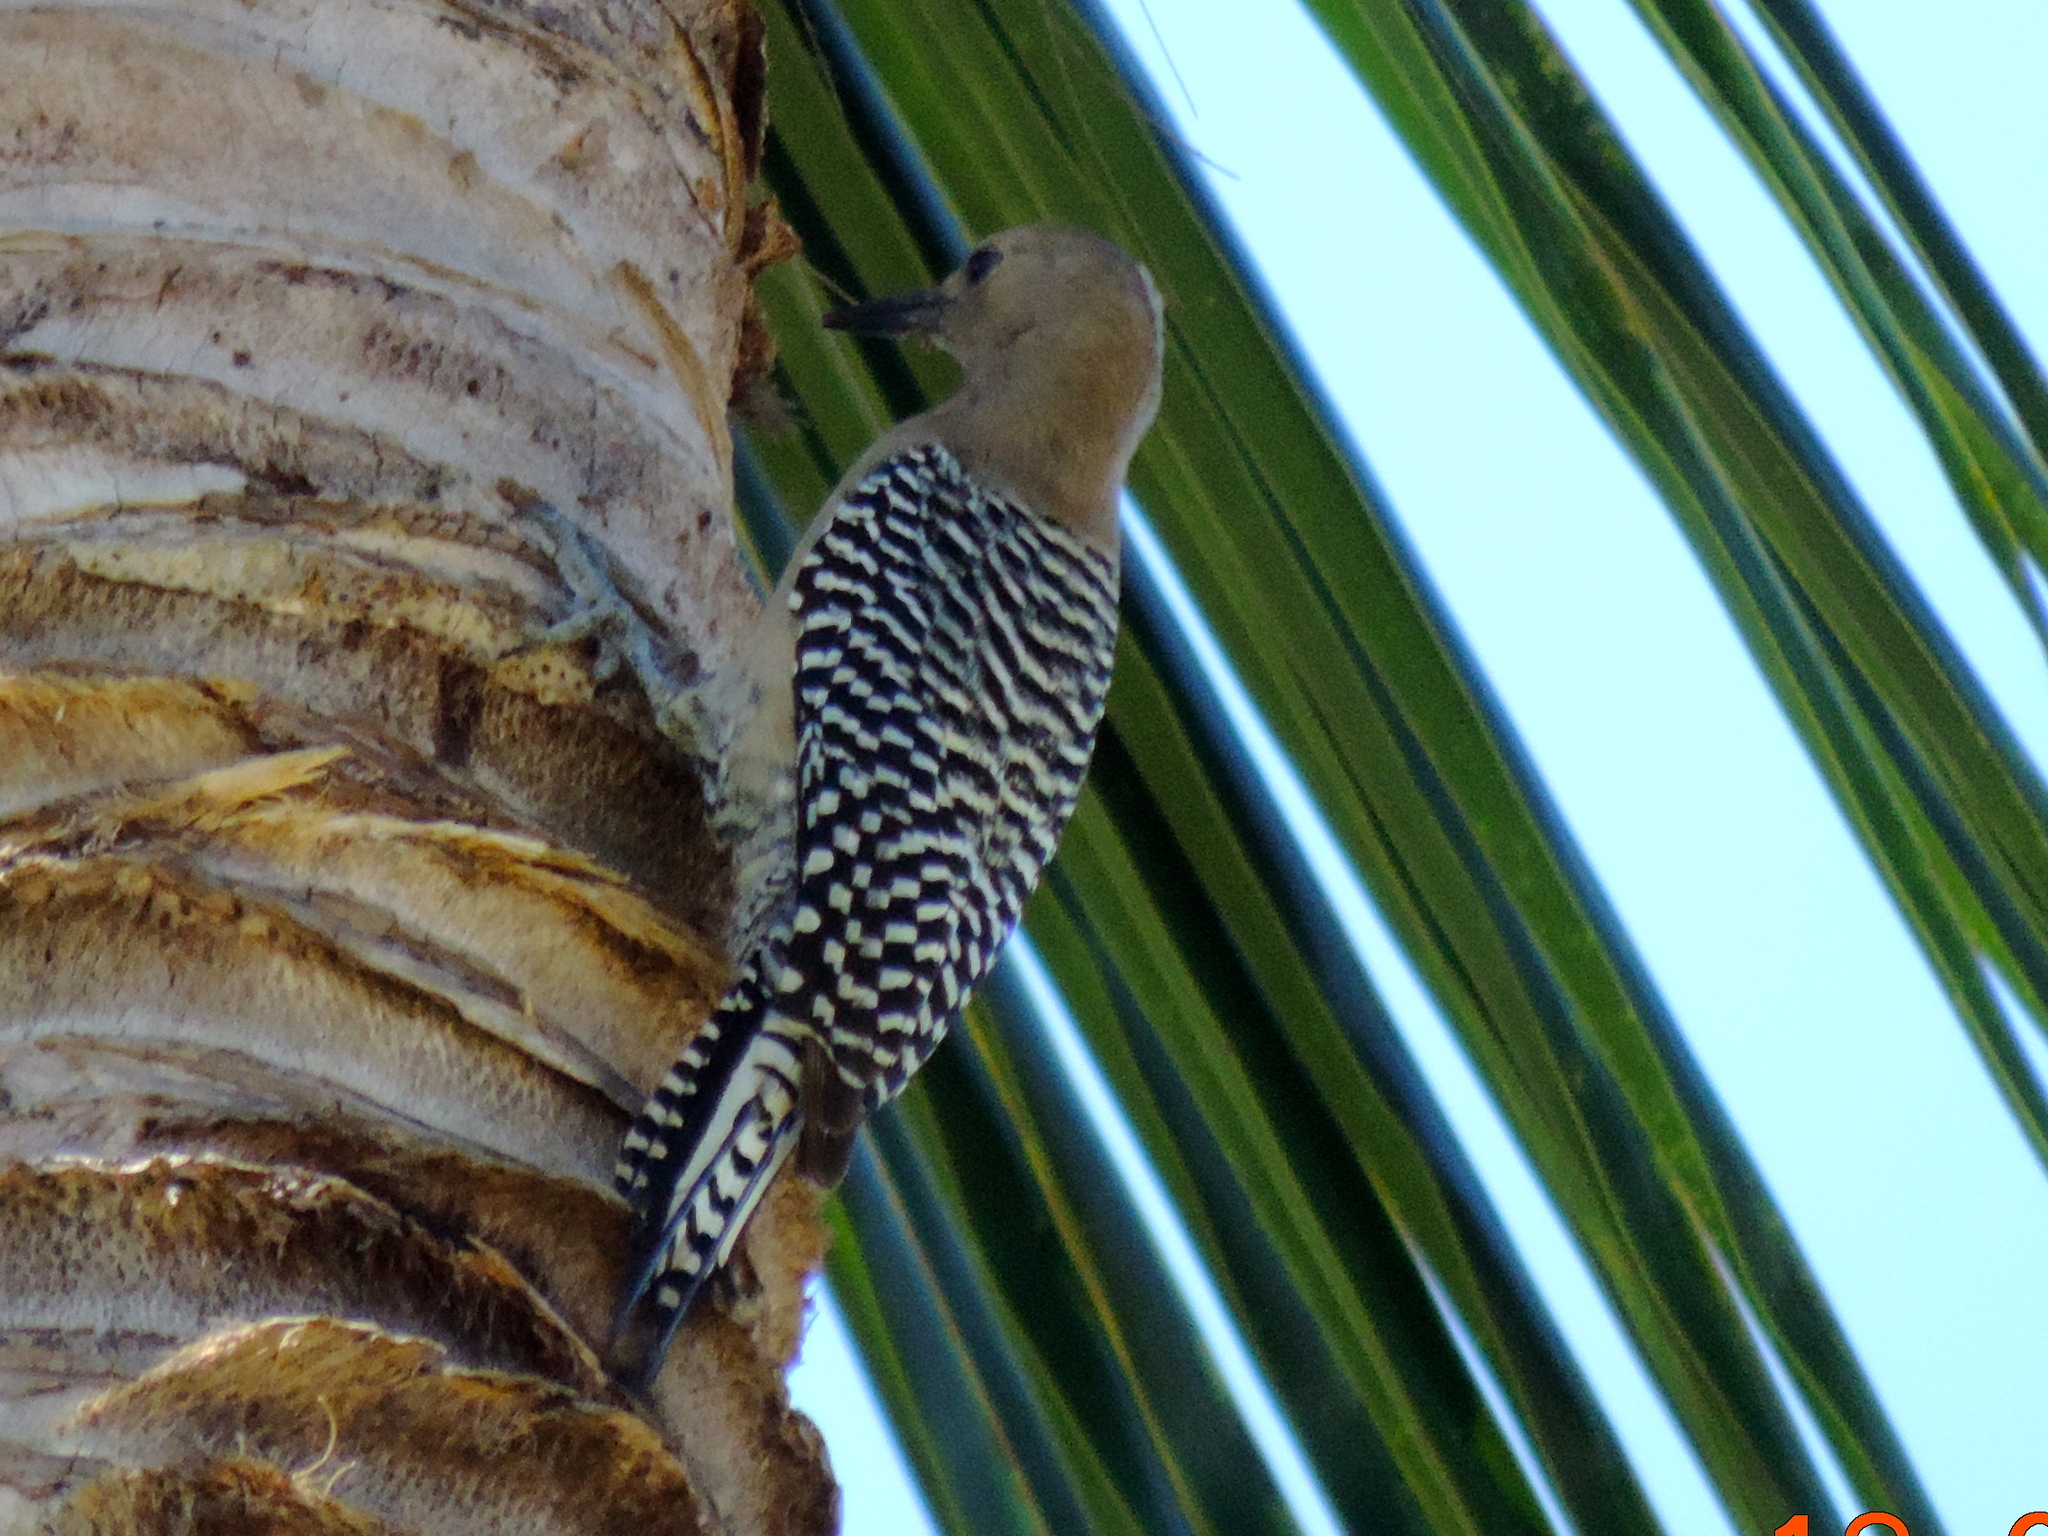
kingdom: Animalia
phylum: Chordata
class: Aves
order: Piciformes
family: Picidae
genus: Melanerpes
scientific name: Melanerpes uropygialis
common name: Gila woodpecker
